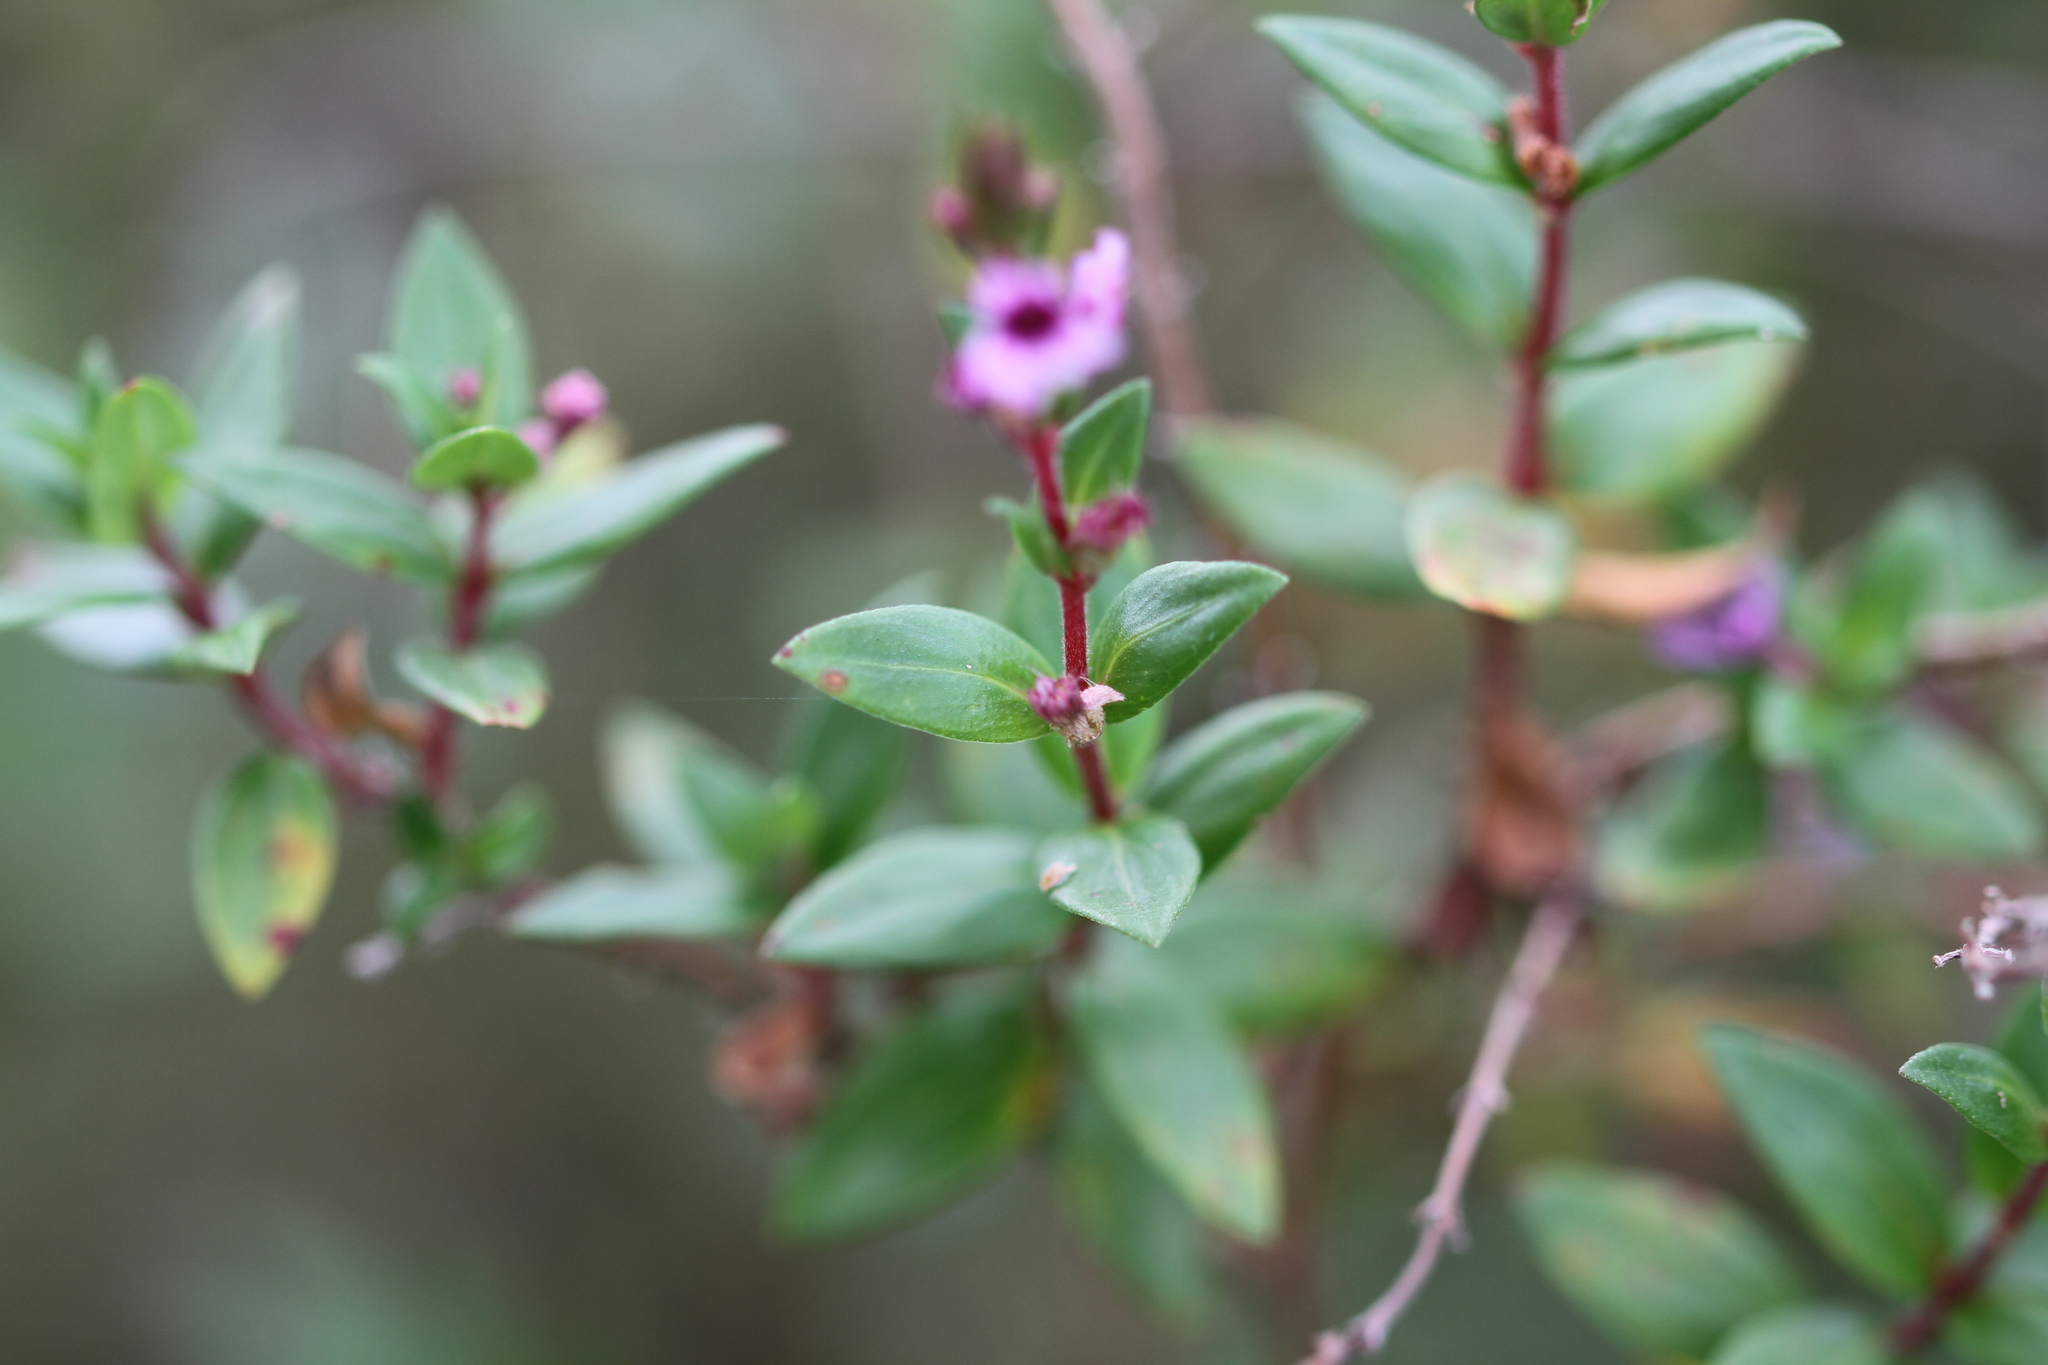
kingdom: Plantae
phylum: Tracheophyta
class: Magnoliopsida
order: Myrtales
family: Lythraceae
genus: Cuphea
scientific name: Cuphea blackii
